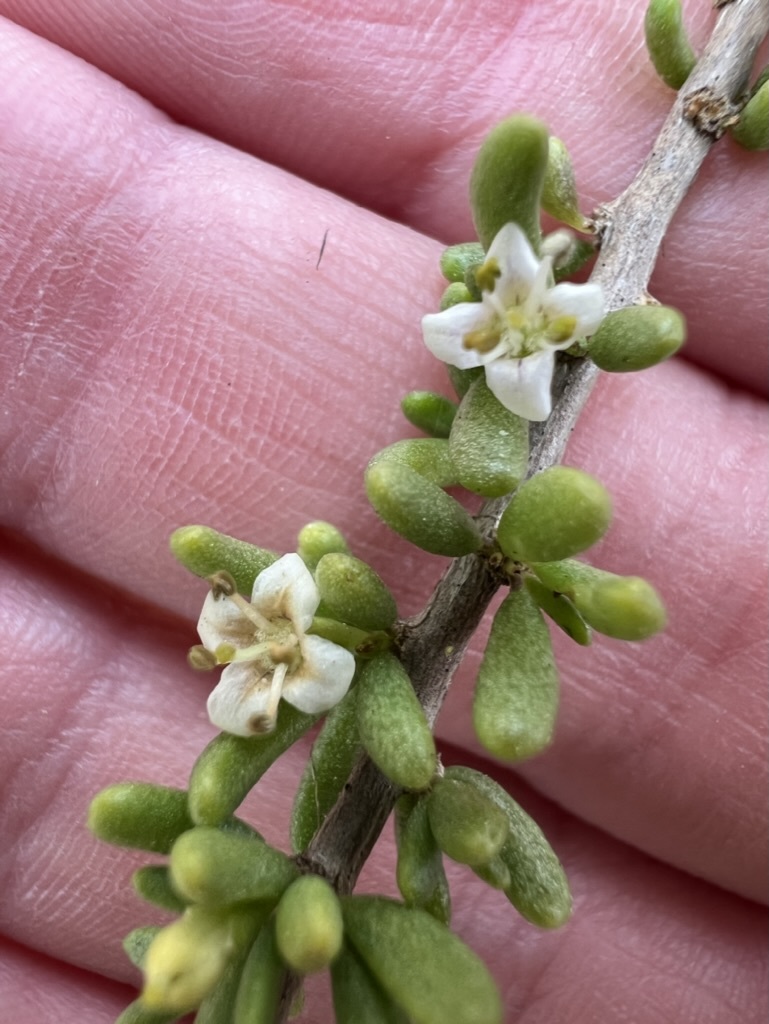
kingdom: Plantae
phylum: Tracheophyta
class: Magnoliopsida
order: Solanales
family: Solanaceae
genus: Lycium
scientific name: Lycium californicum
